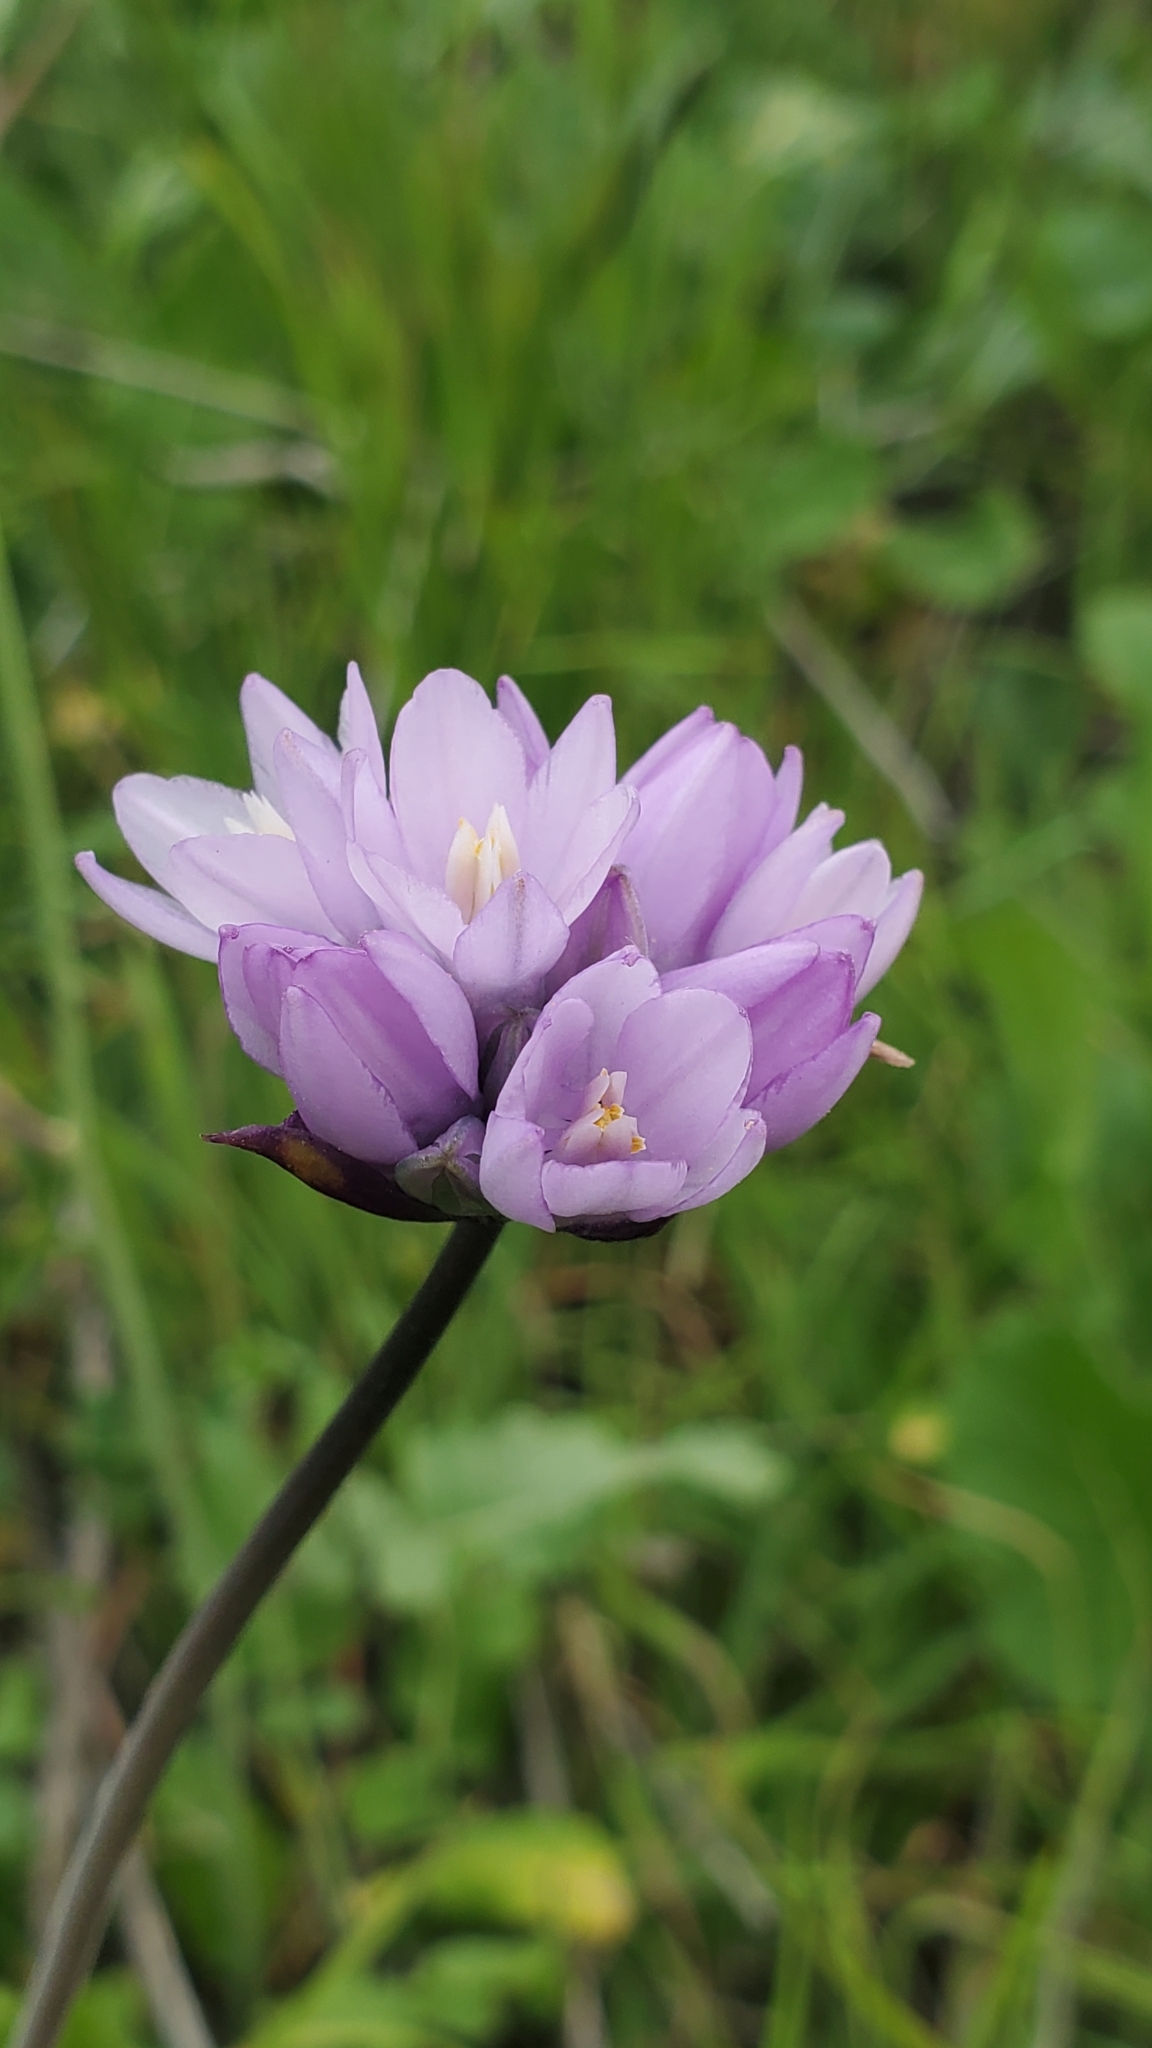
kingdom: Plantae
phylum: Tracheophyta
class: Liliopsida
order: Asparagales
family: Asparagaceae
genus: Dipterostemon
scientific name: Dipterostemon capitatus
